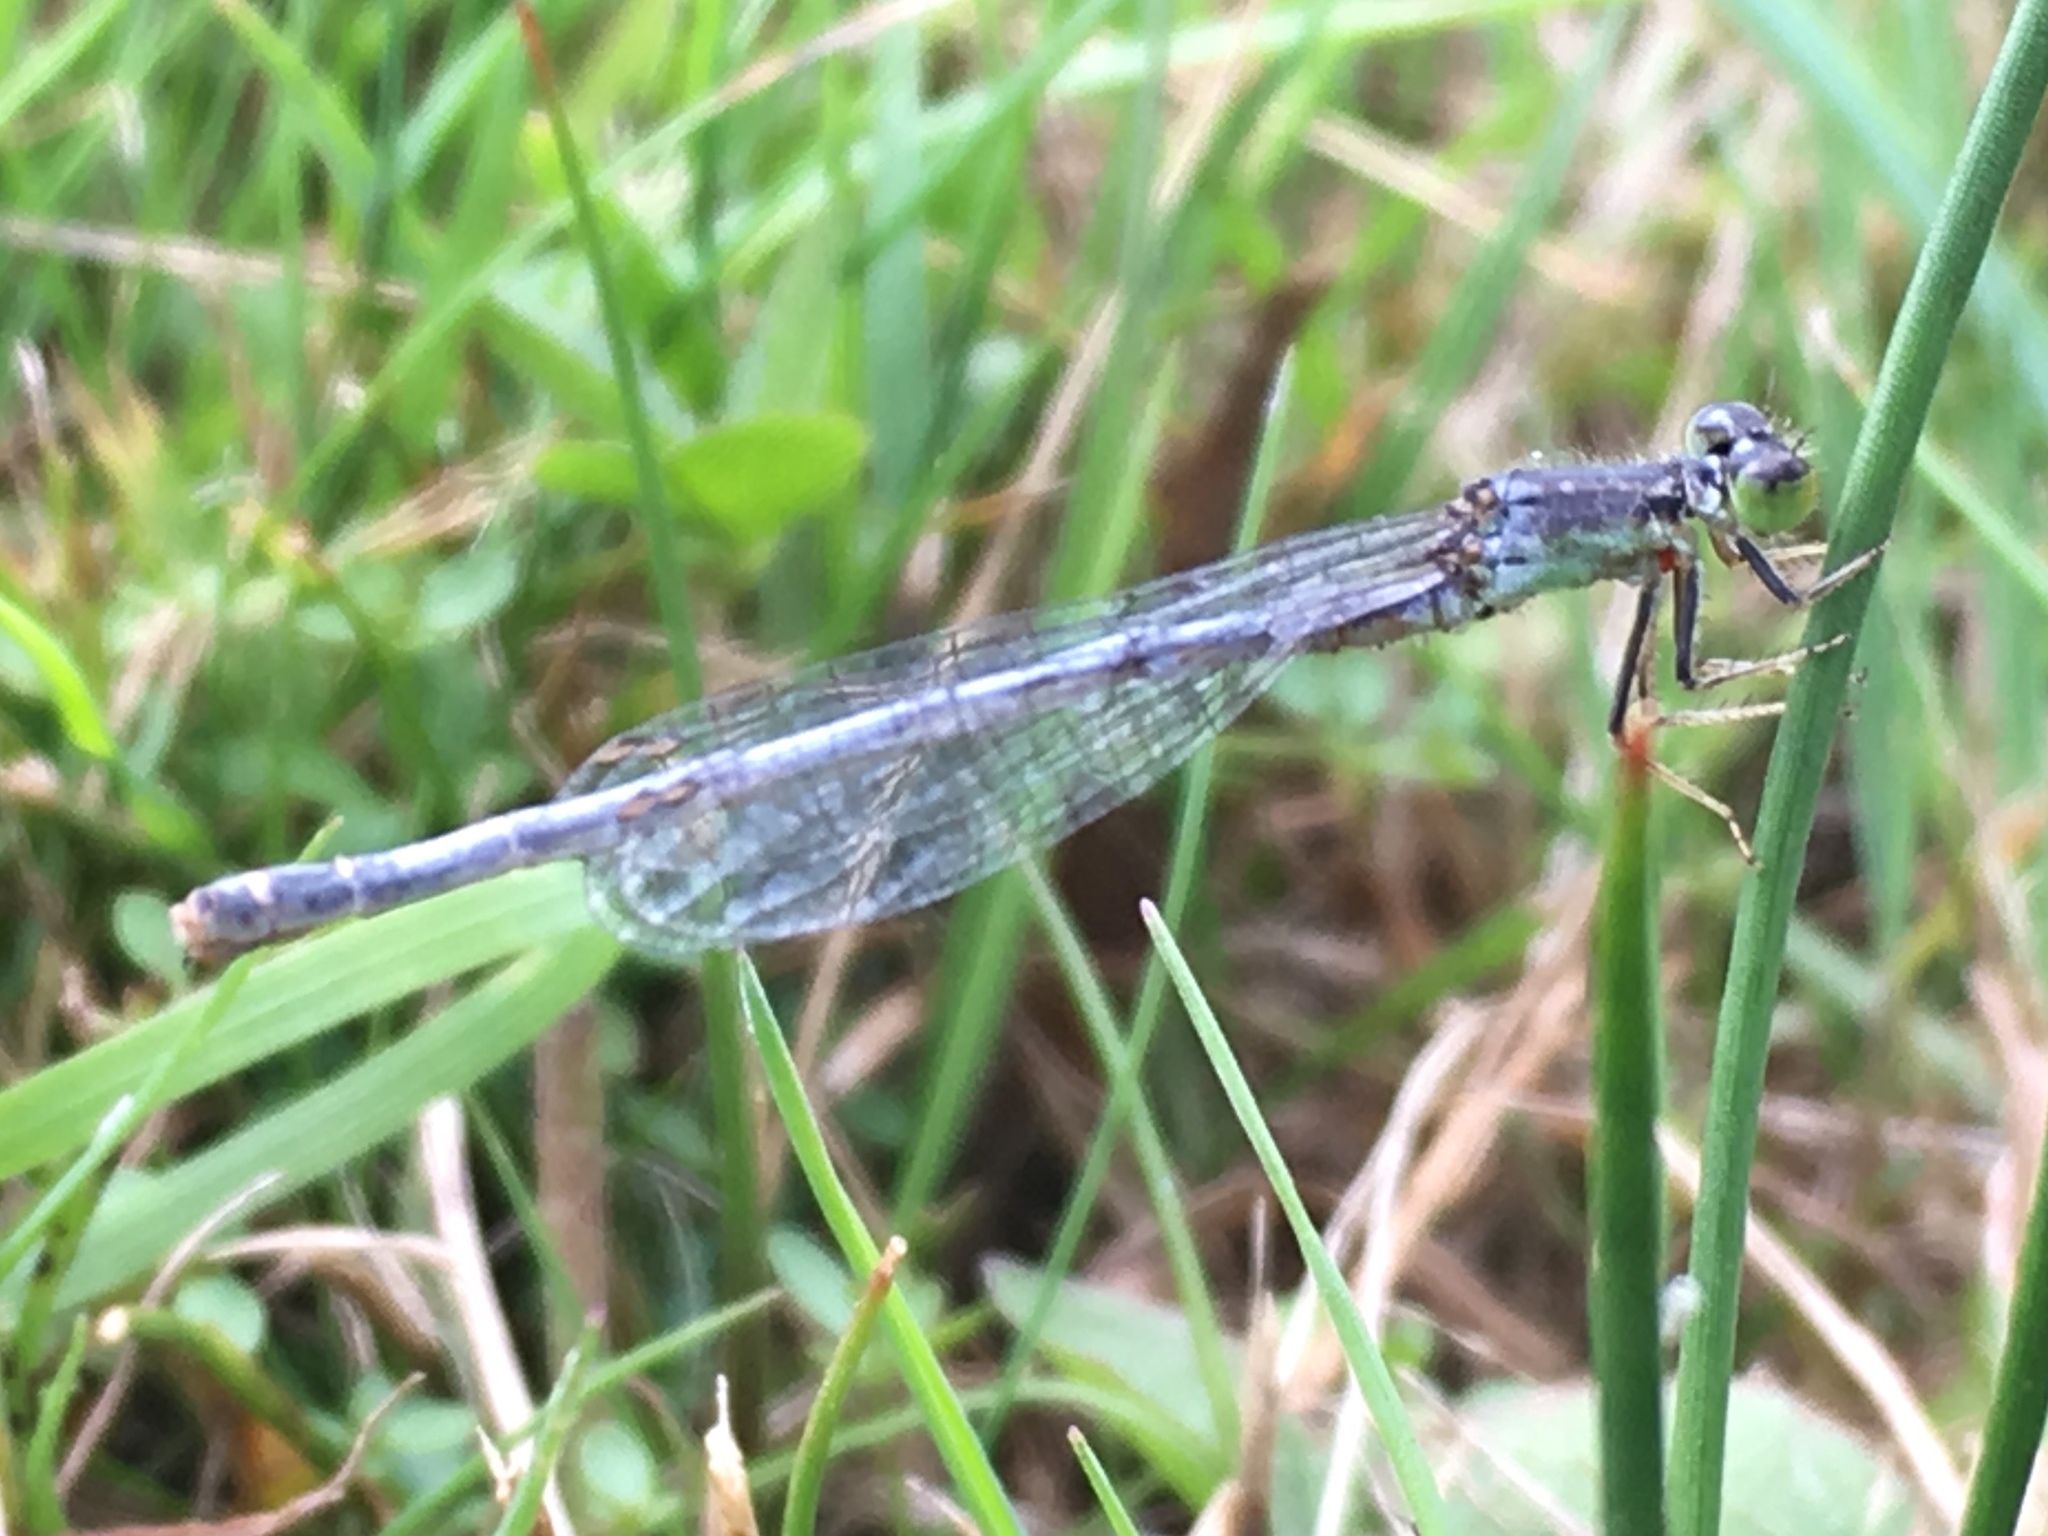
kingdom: Animalia
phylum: Arthropoda
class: Insecta
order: Odonata
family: Coenagrionidae
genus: Ischnura
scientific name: Ischnura verticalis
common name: Eastern forktail
